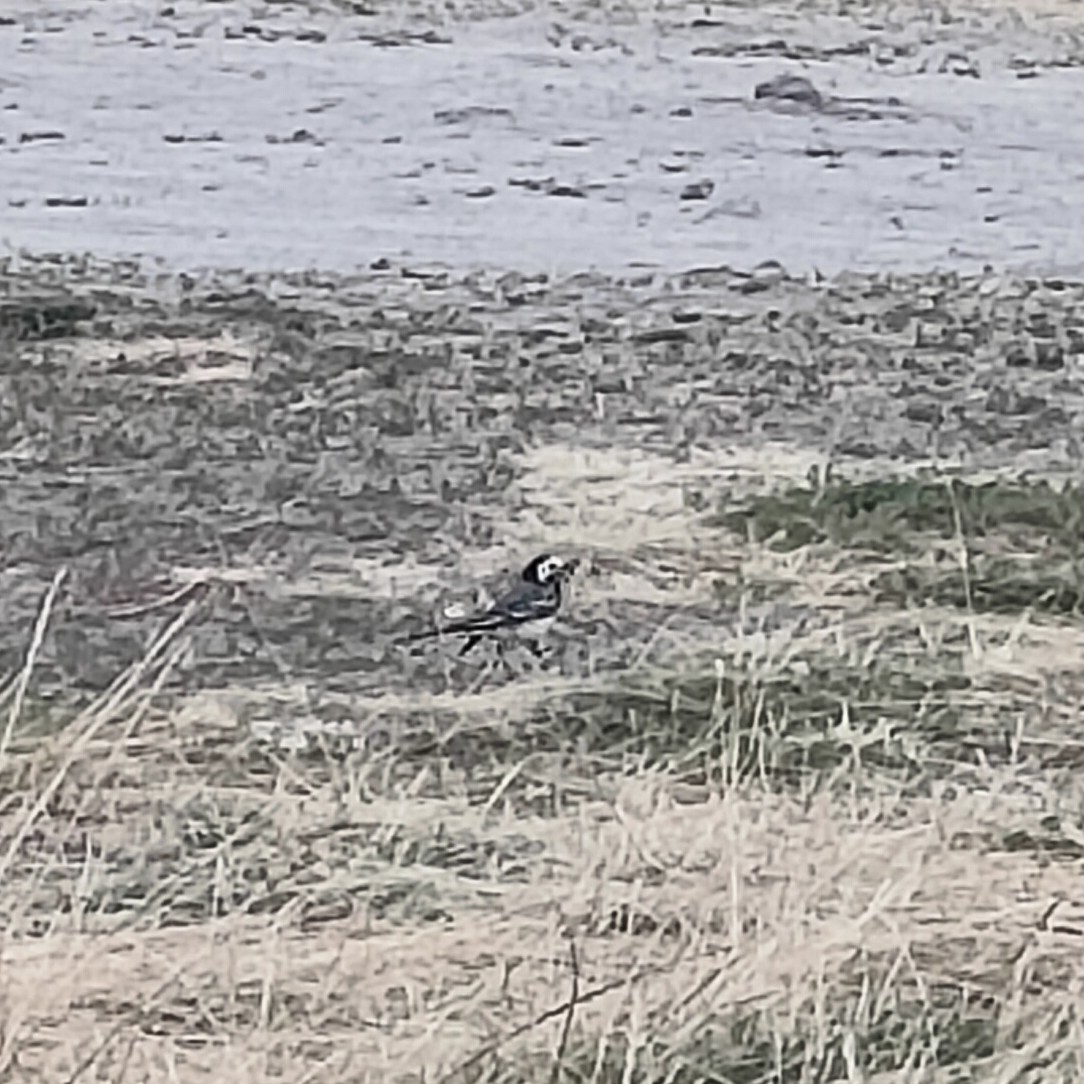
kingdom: Animalia
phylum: Chordata
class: Aves
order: Passeriformes
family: Motacillidae
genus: Motacilla
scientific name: Motacilla alba
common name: White wagtail
